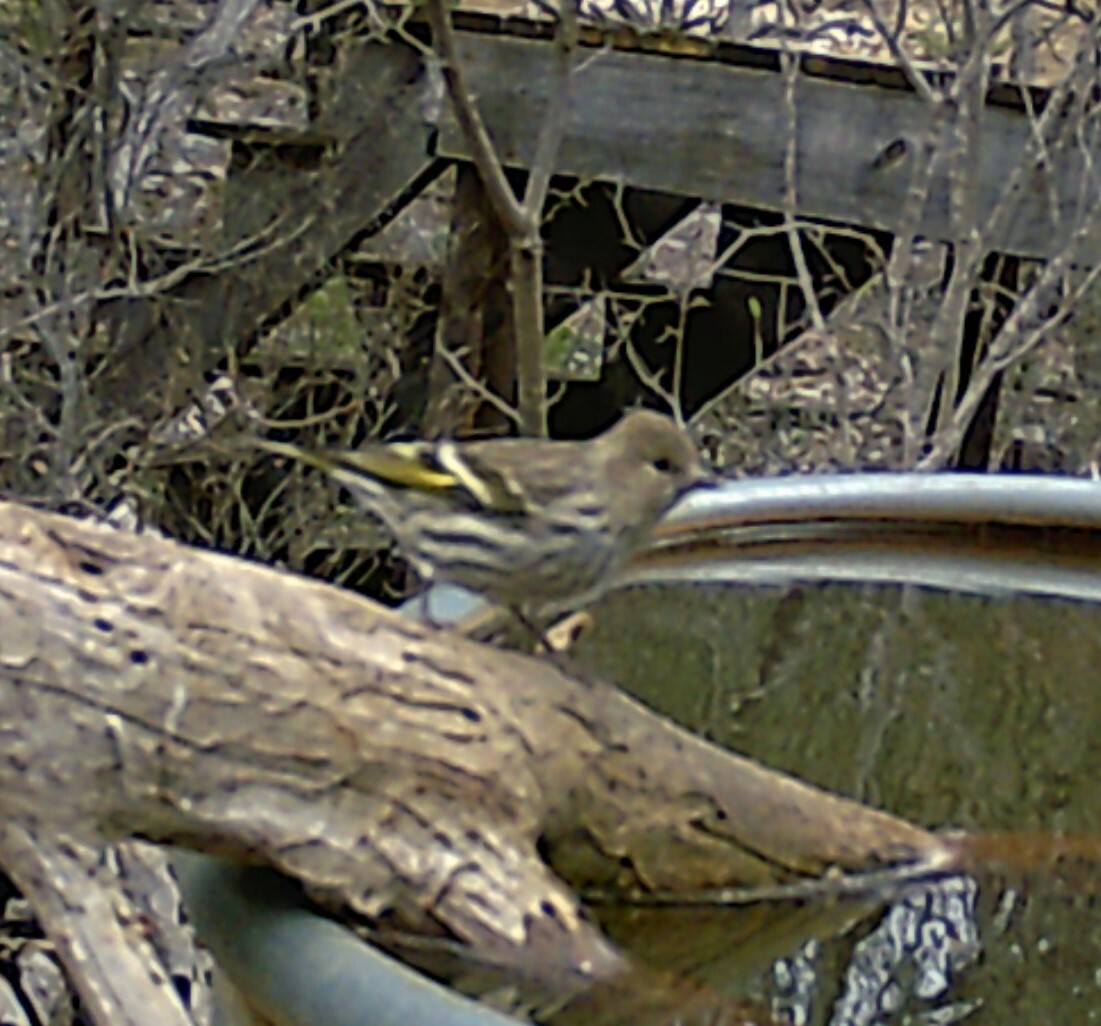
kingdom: Animalia
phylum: Chordata
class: Aves
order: Passeriformes
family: Fringillidae
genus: Spinus
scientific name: Spinus pinus
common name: Pine siskin
